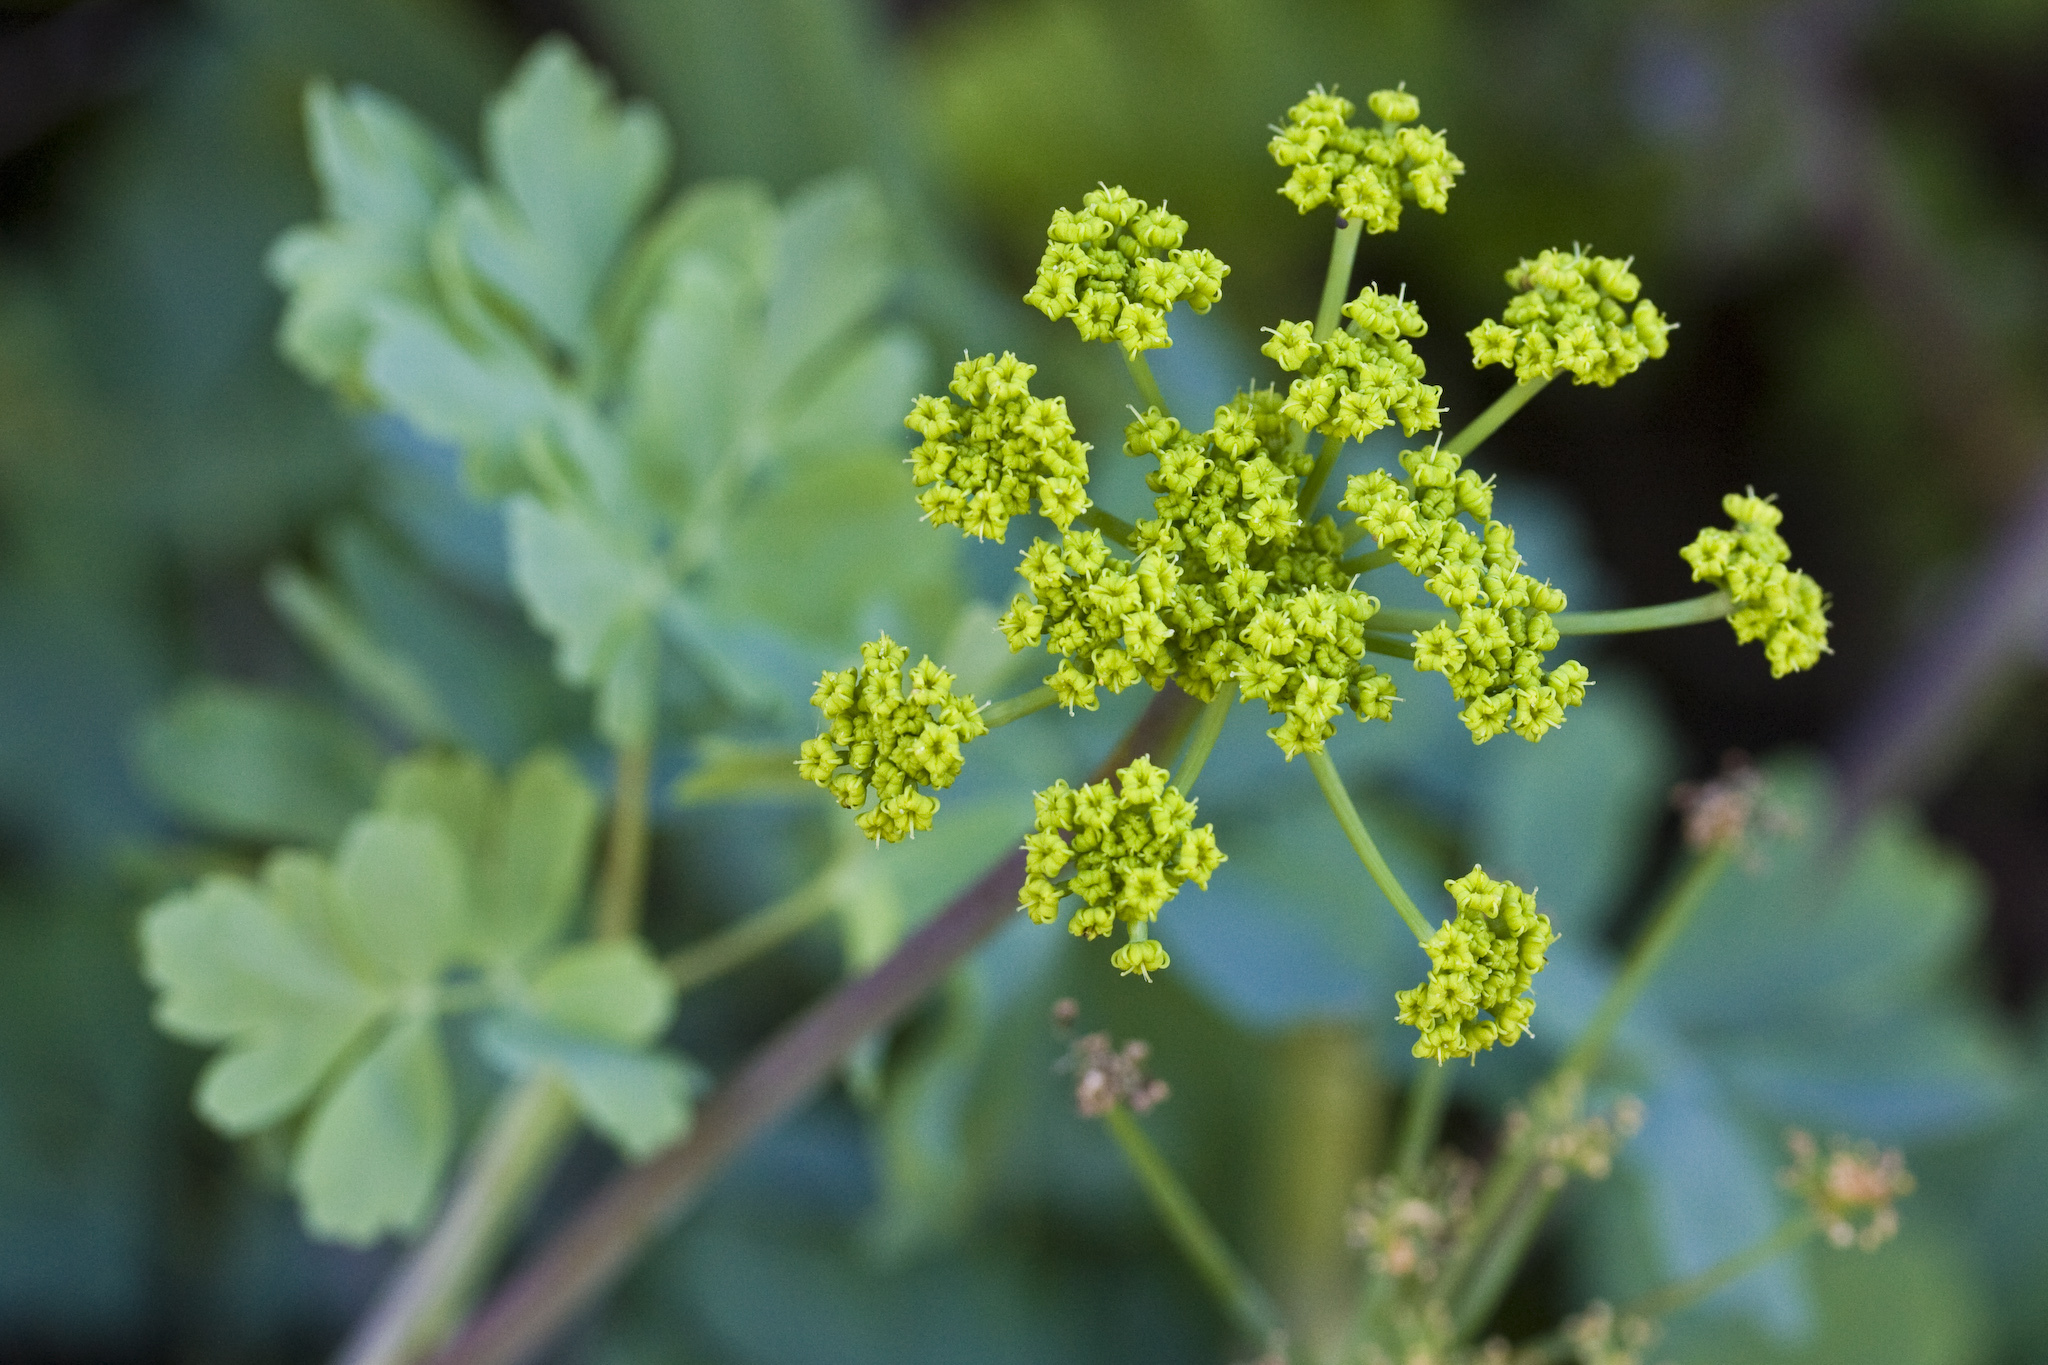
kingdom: Plantae
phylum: Tracheophyta
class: Magnoliopsida
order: Apiales
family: Apiaceae
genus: Lomatium
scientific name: Lomatium californicum
